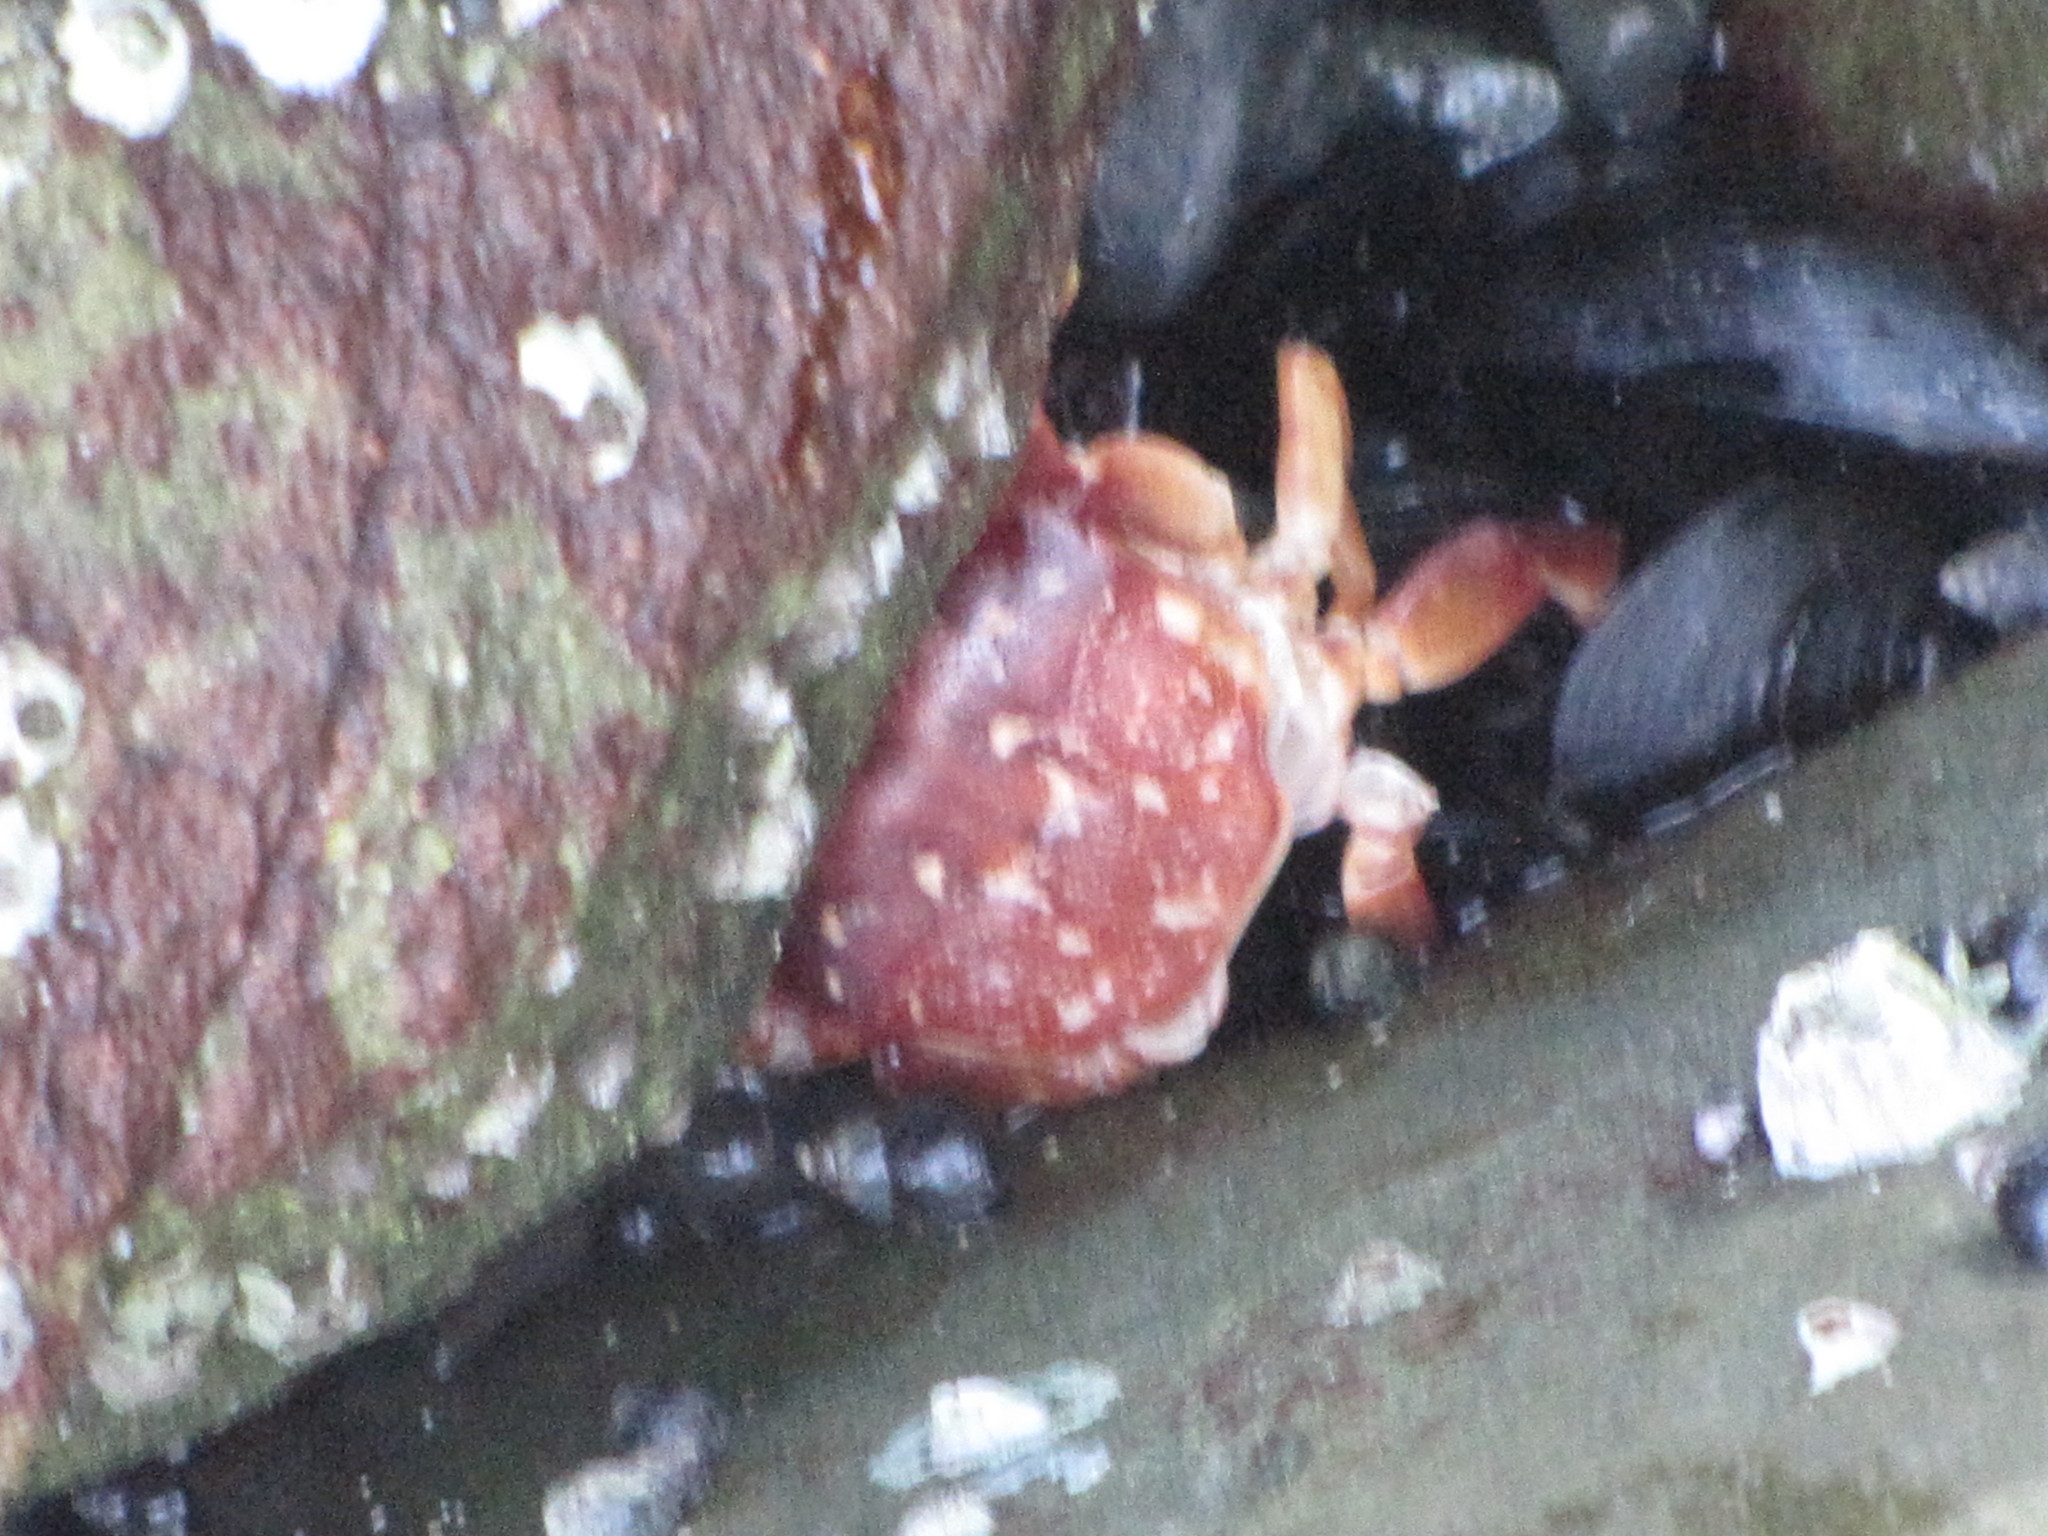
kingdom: Animalia
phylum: Arthropoda
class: Malacostraca
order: Decapoda
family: Varunidae
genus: Hemigrapsus
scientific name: Hemigrapsus nudus
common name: Purple shore crab
